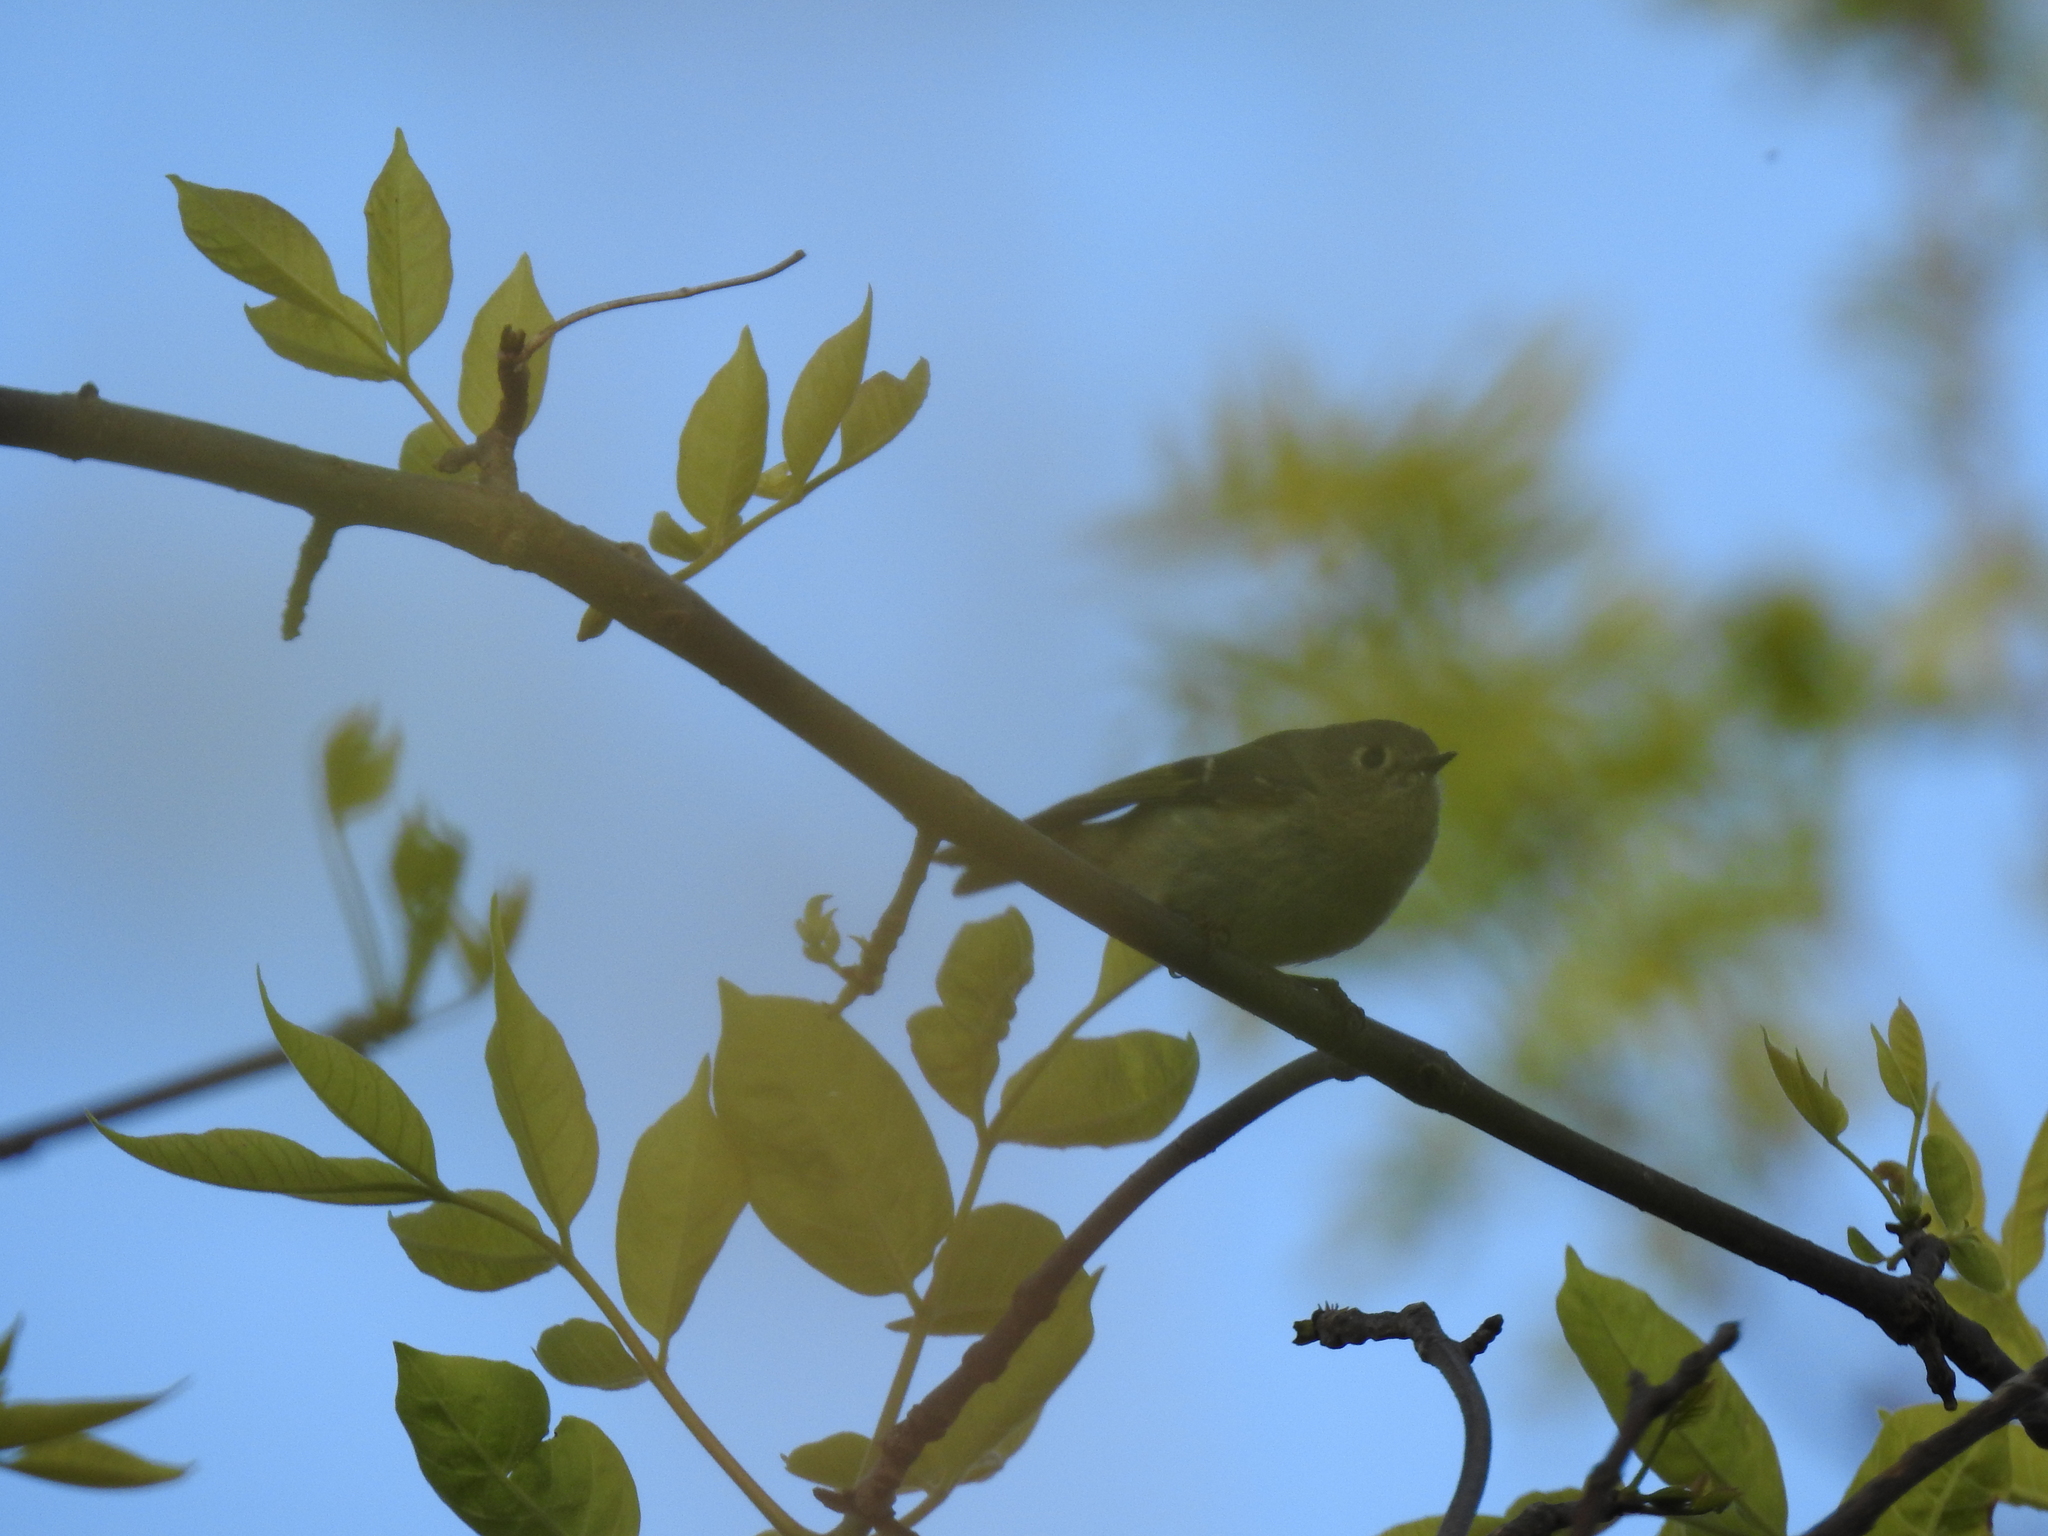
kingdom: Animalia
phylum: Chordata
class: Aves
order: Passeriformes
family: Regulidae
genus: Regulus
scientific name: Regulus calendula
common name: Ruby-crowned kinglet
